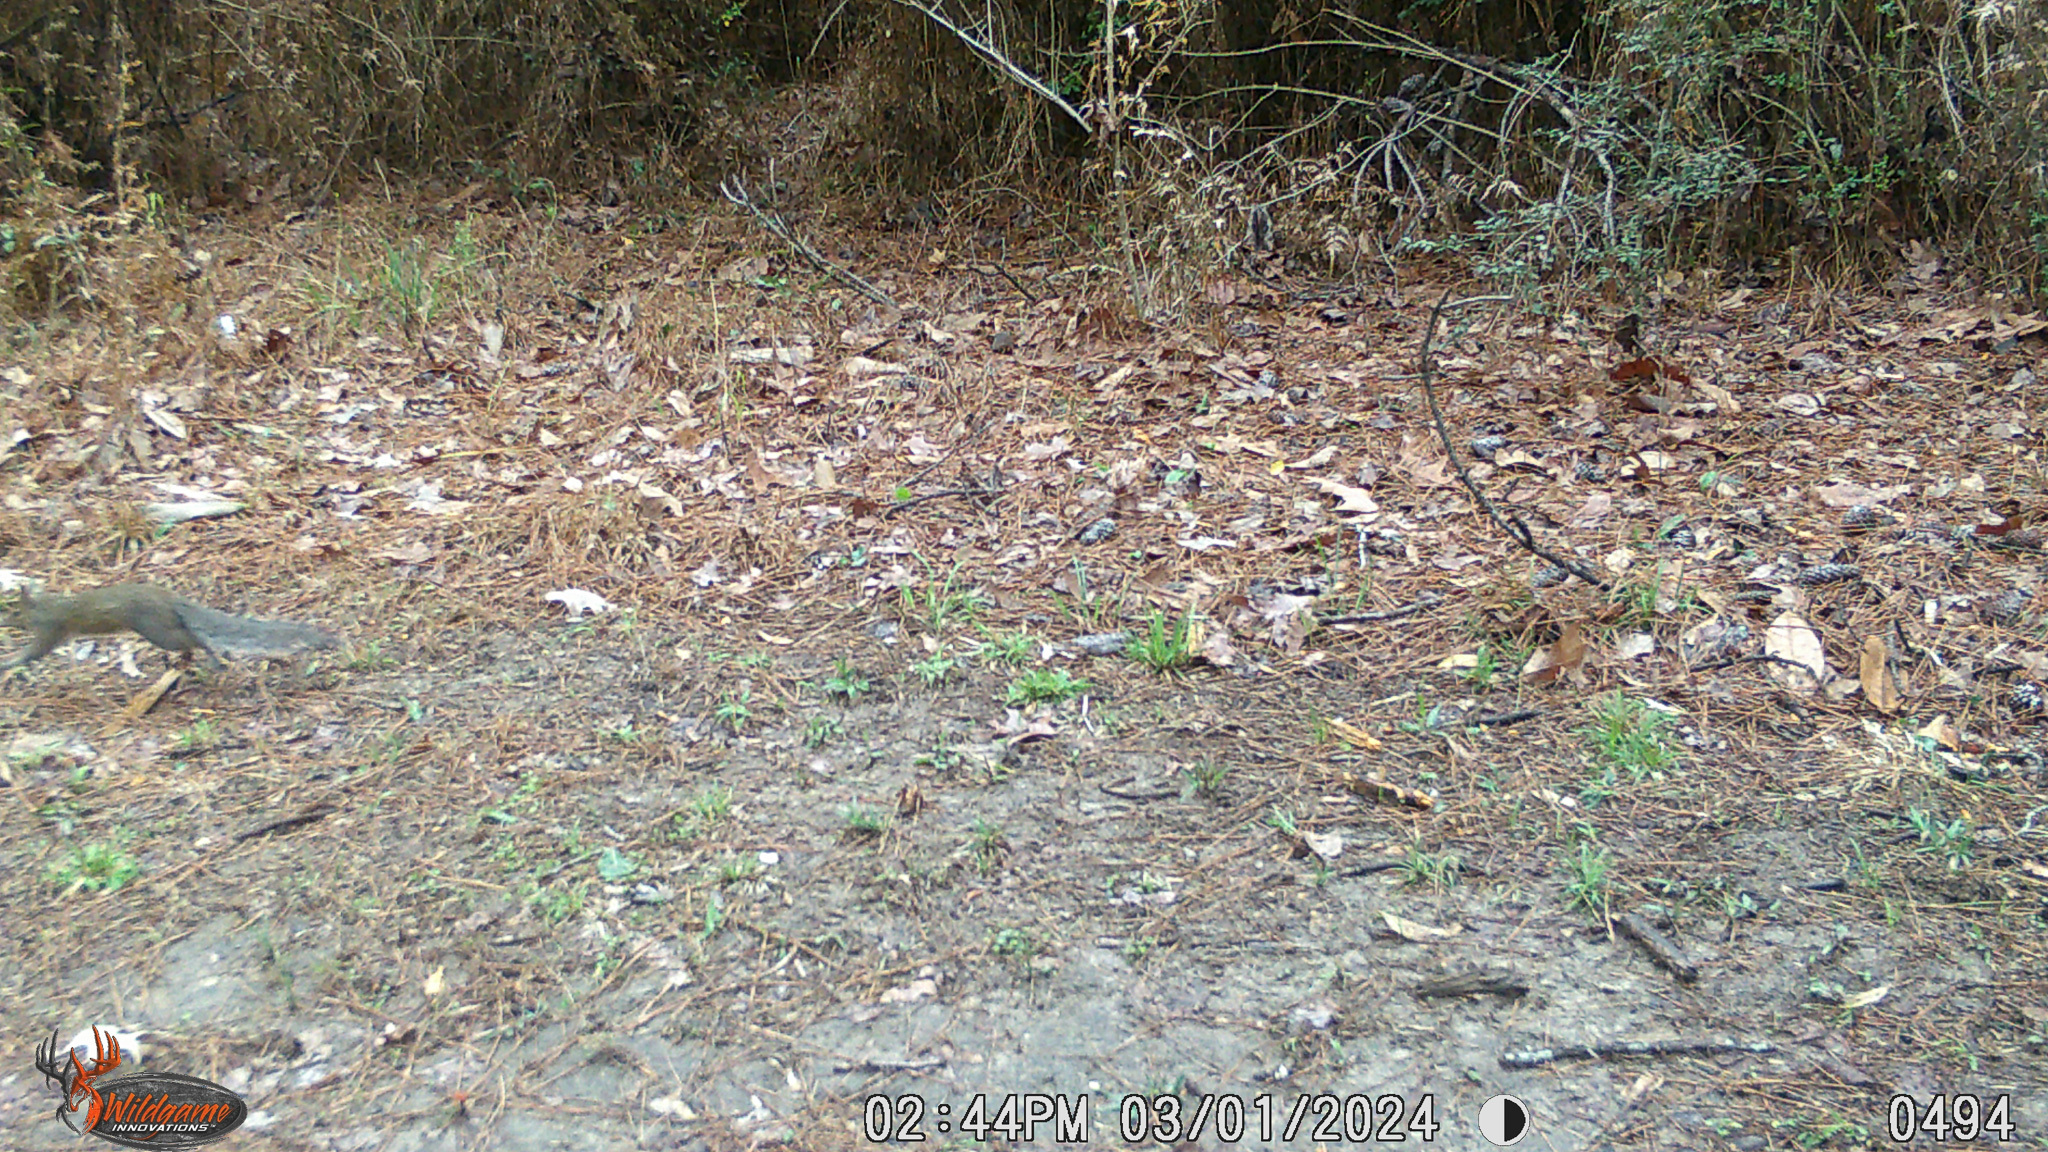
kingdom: Animalia
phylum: Chordata
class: Mammalia
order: Rodentia
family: Sciuridae
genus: Sciurus
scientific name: Sciurus carolinensis
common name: Eastern gray squirrel
